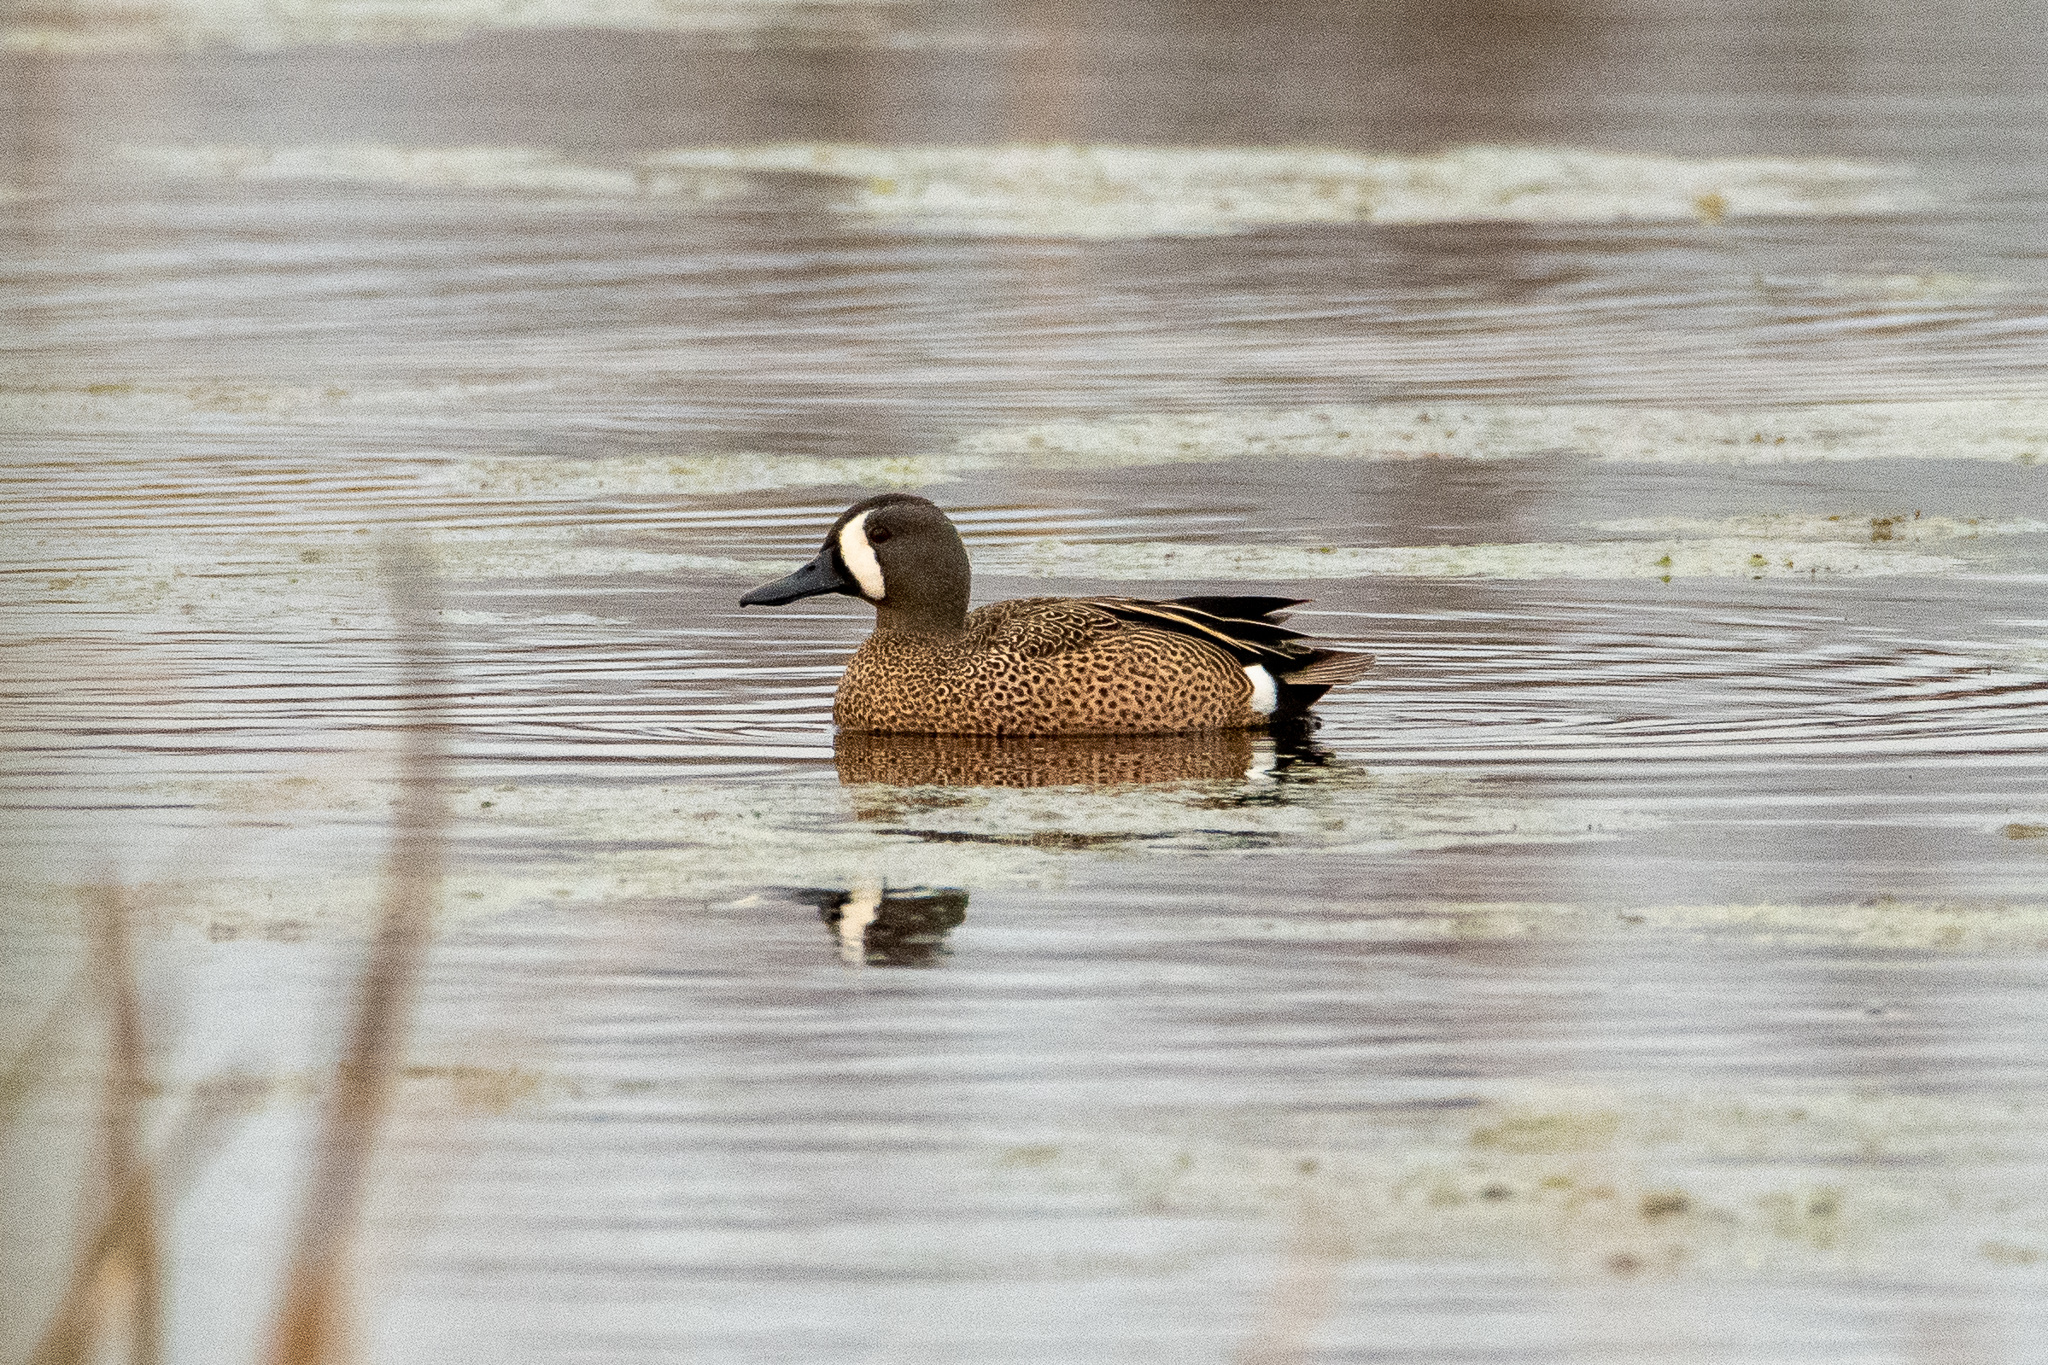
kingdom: Animalia
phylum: Chordata
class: Aves
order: Anseriformes
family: Anatidae
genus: Spatula
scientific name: Spatula discors
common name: Blue-winged teal
